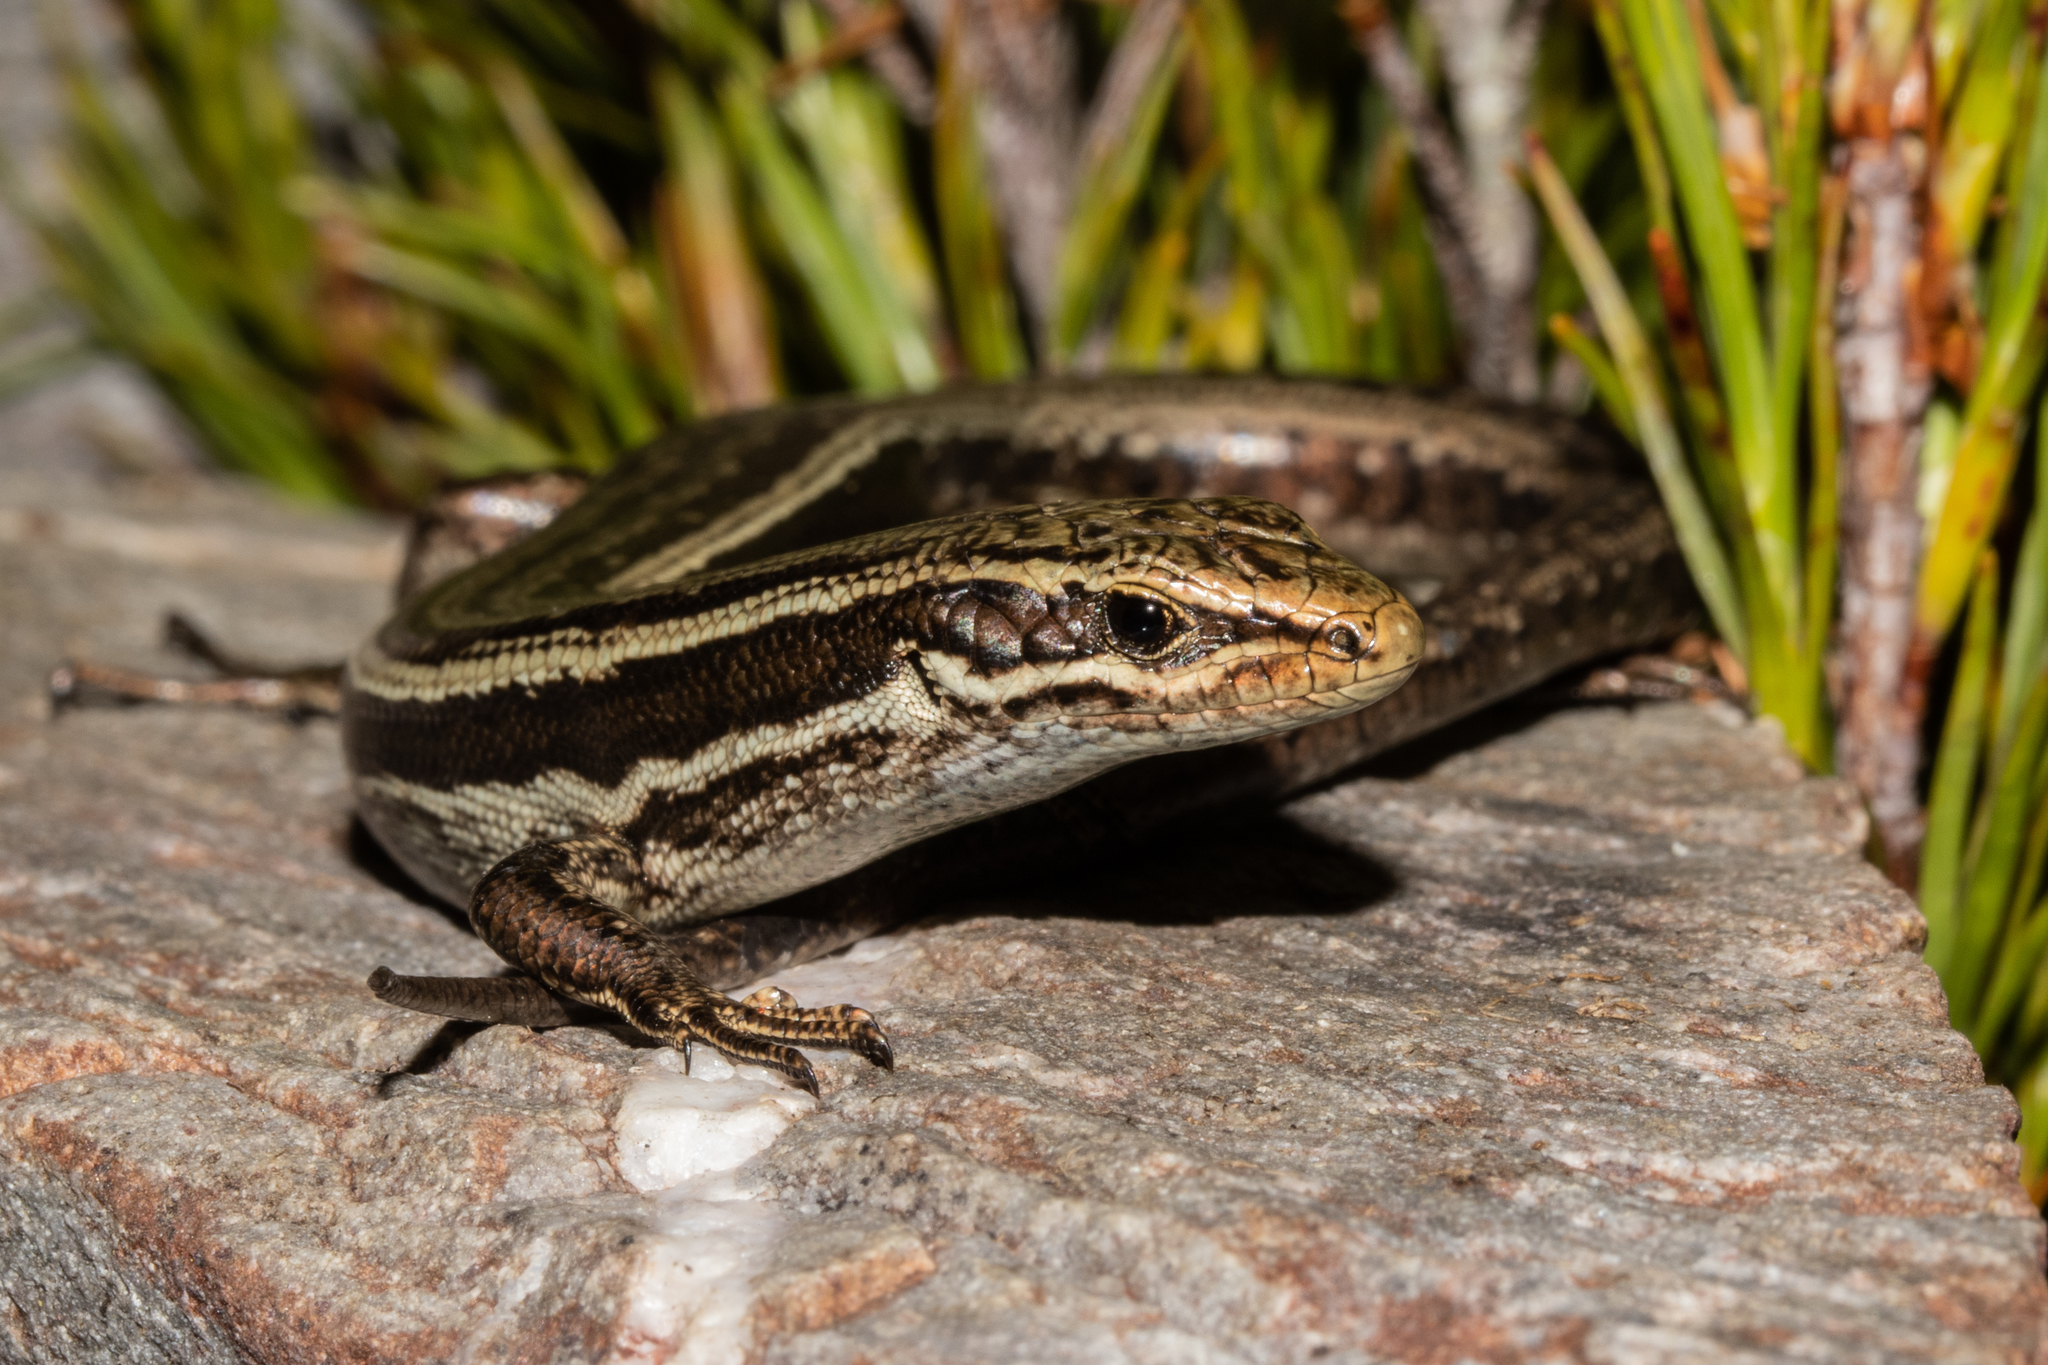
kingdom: Animalia
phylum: Chordata
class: Squamata
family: Scincidae
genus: Oligosoma
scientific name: Oligosoma kahurangi
